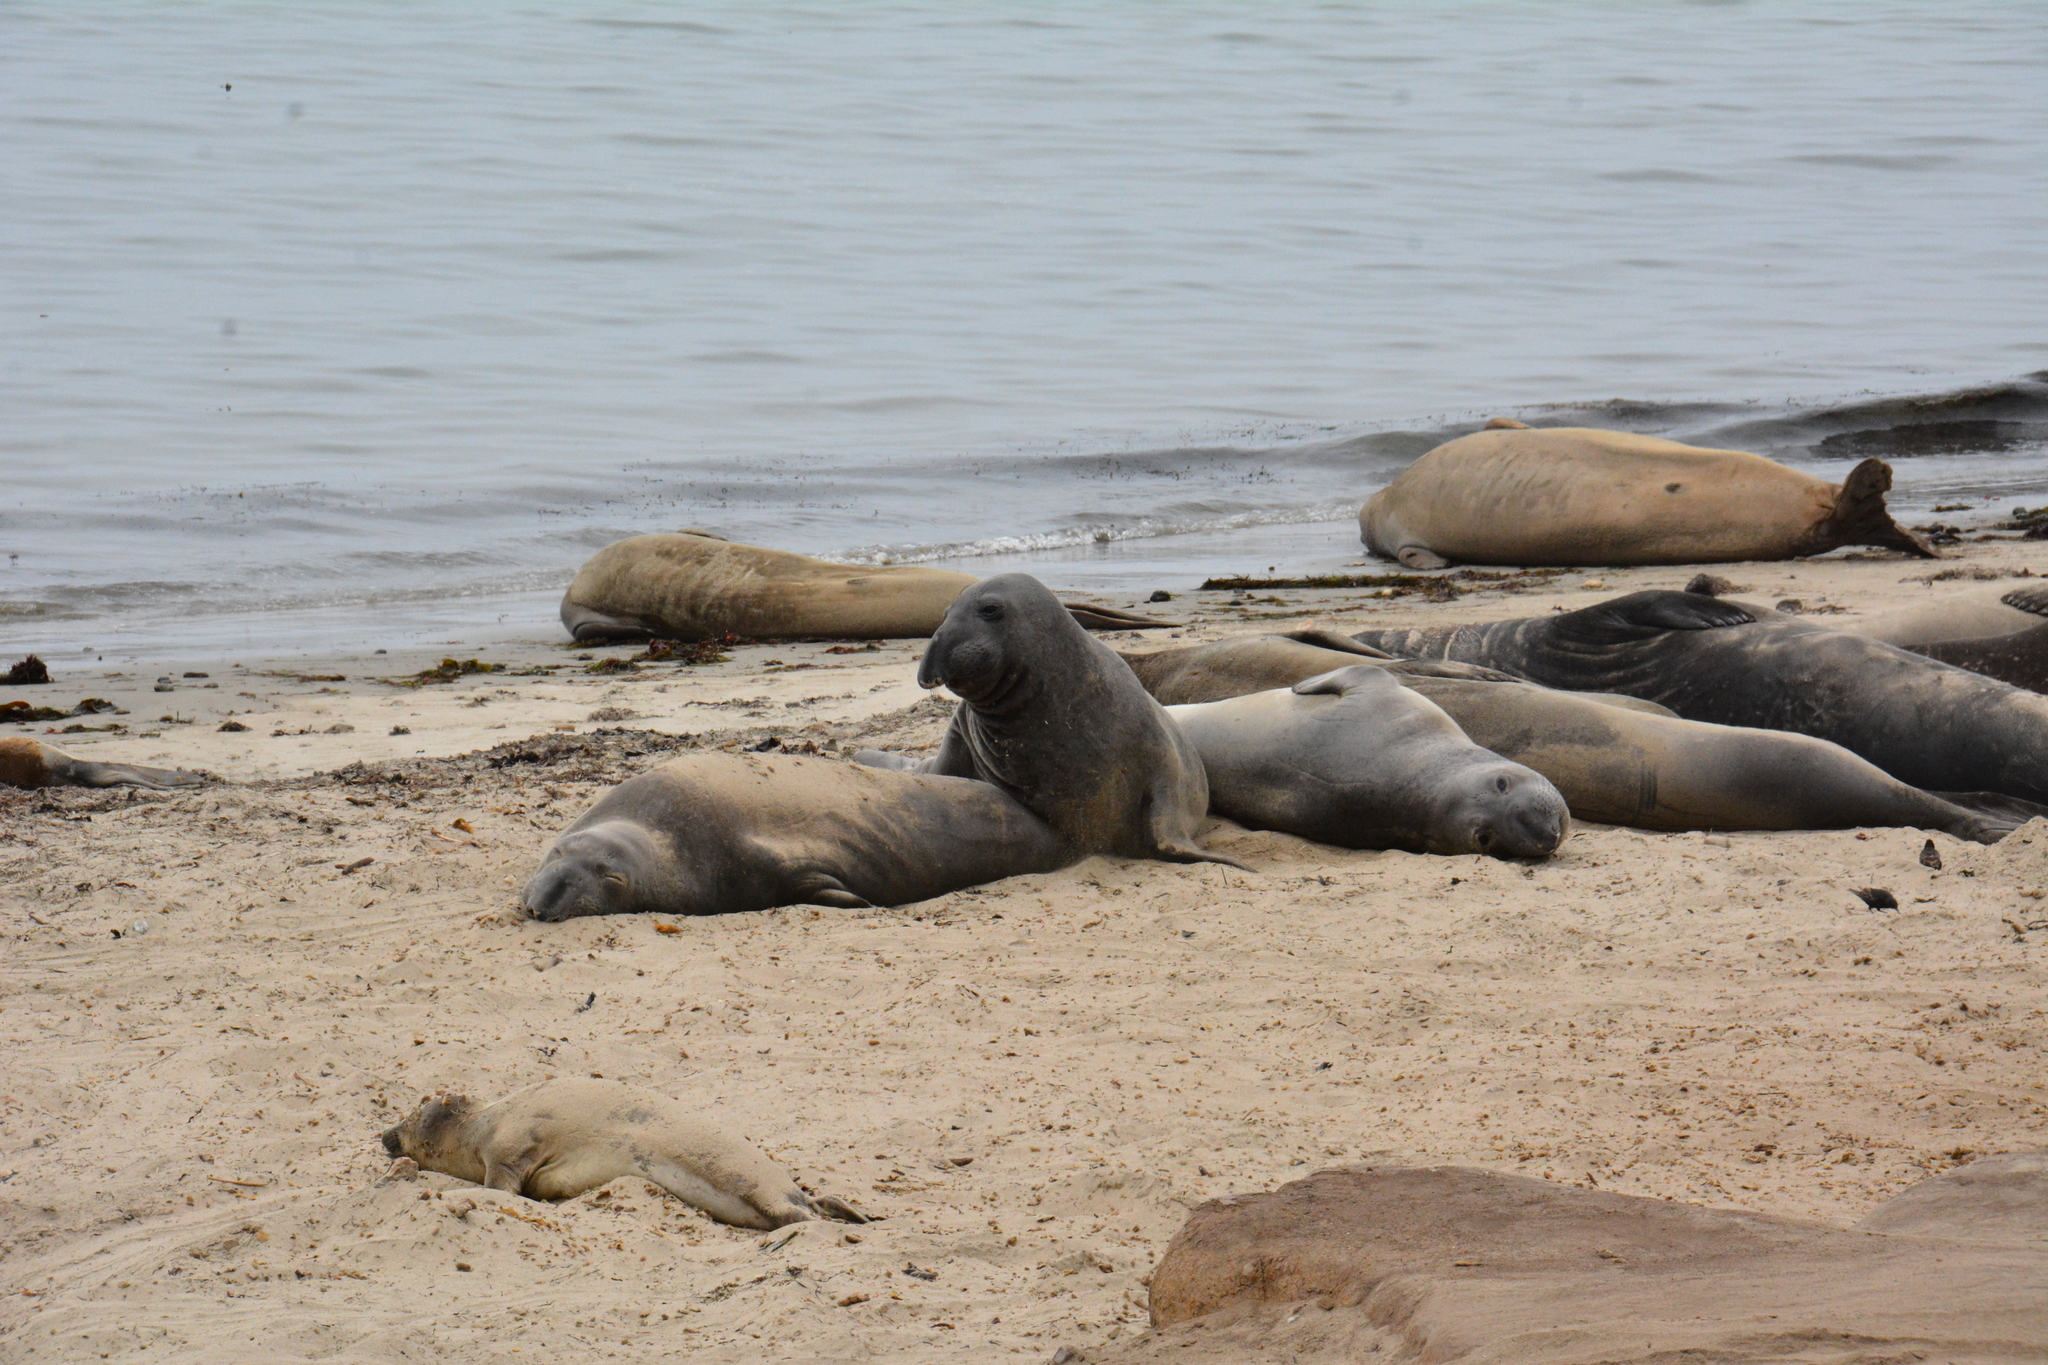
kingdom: Animalia
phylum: Chordata
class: Mammalia
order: Carnivora
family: Phocidae
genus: Mirounga
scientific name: Mirounga angustirostris
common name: Northern elephant seal
